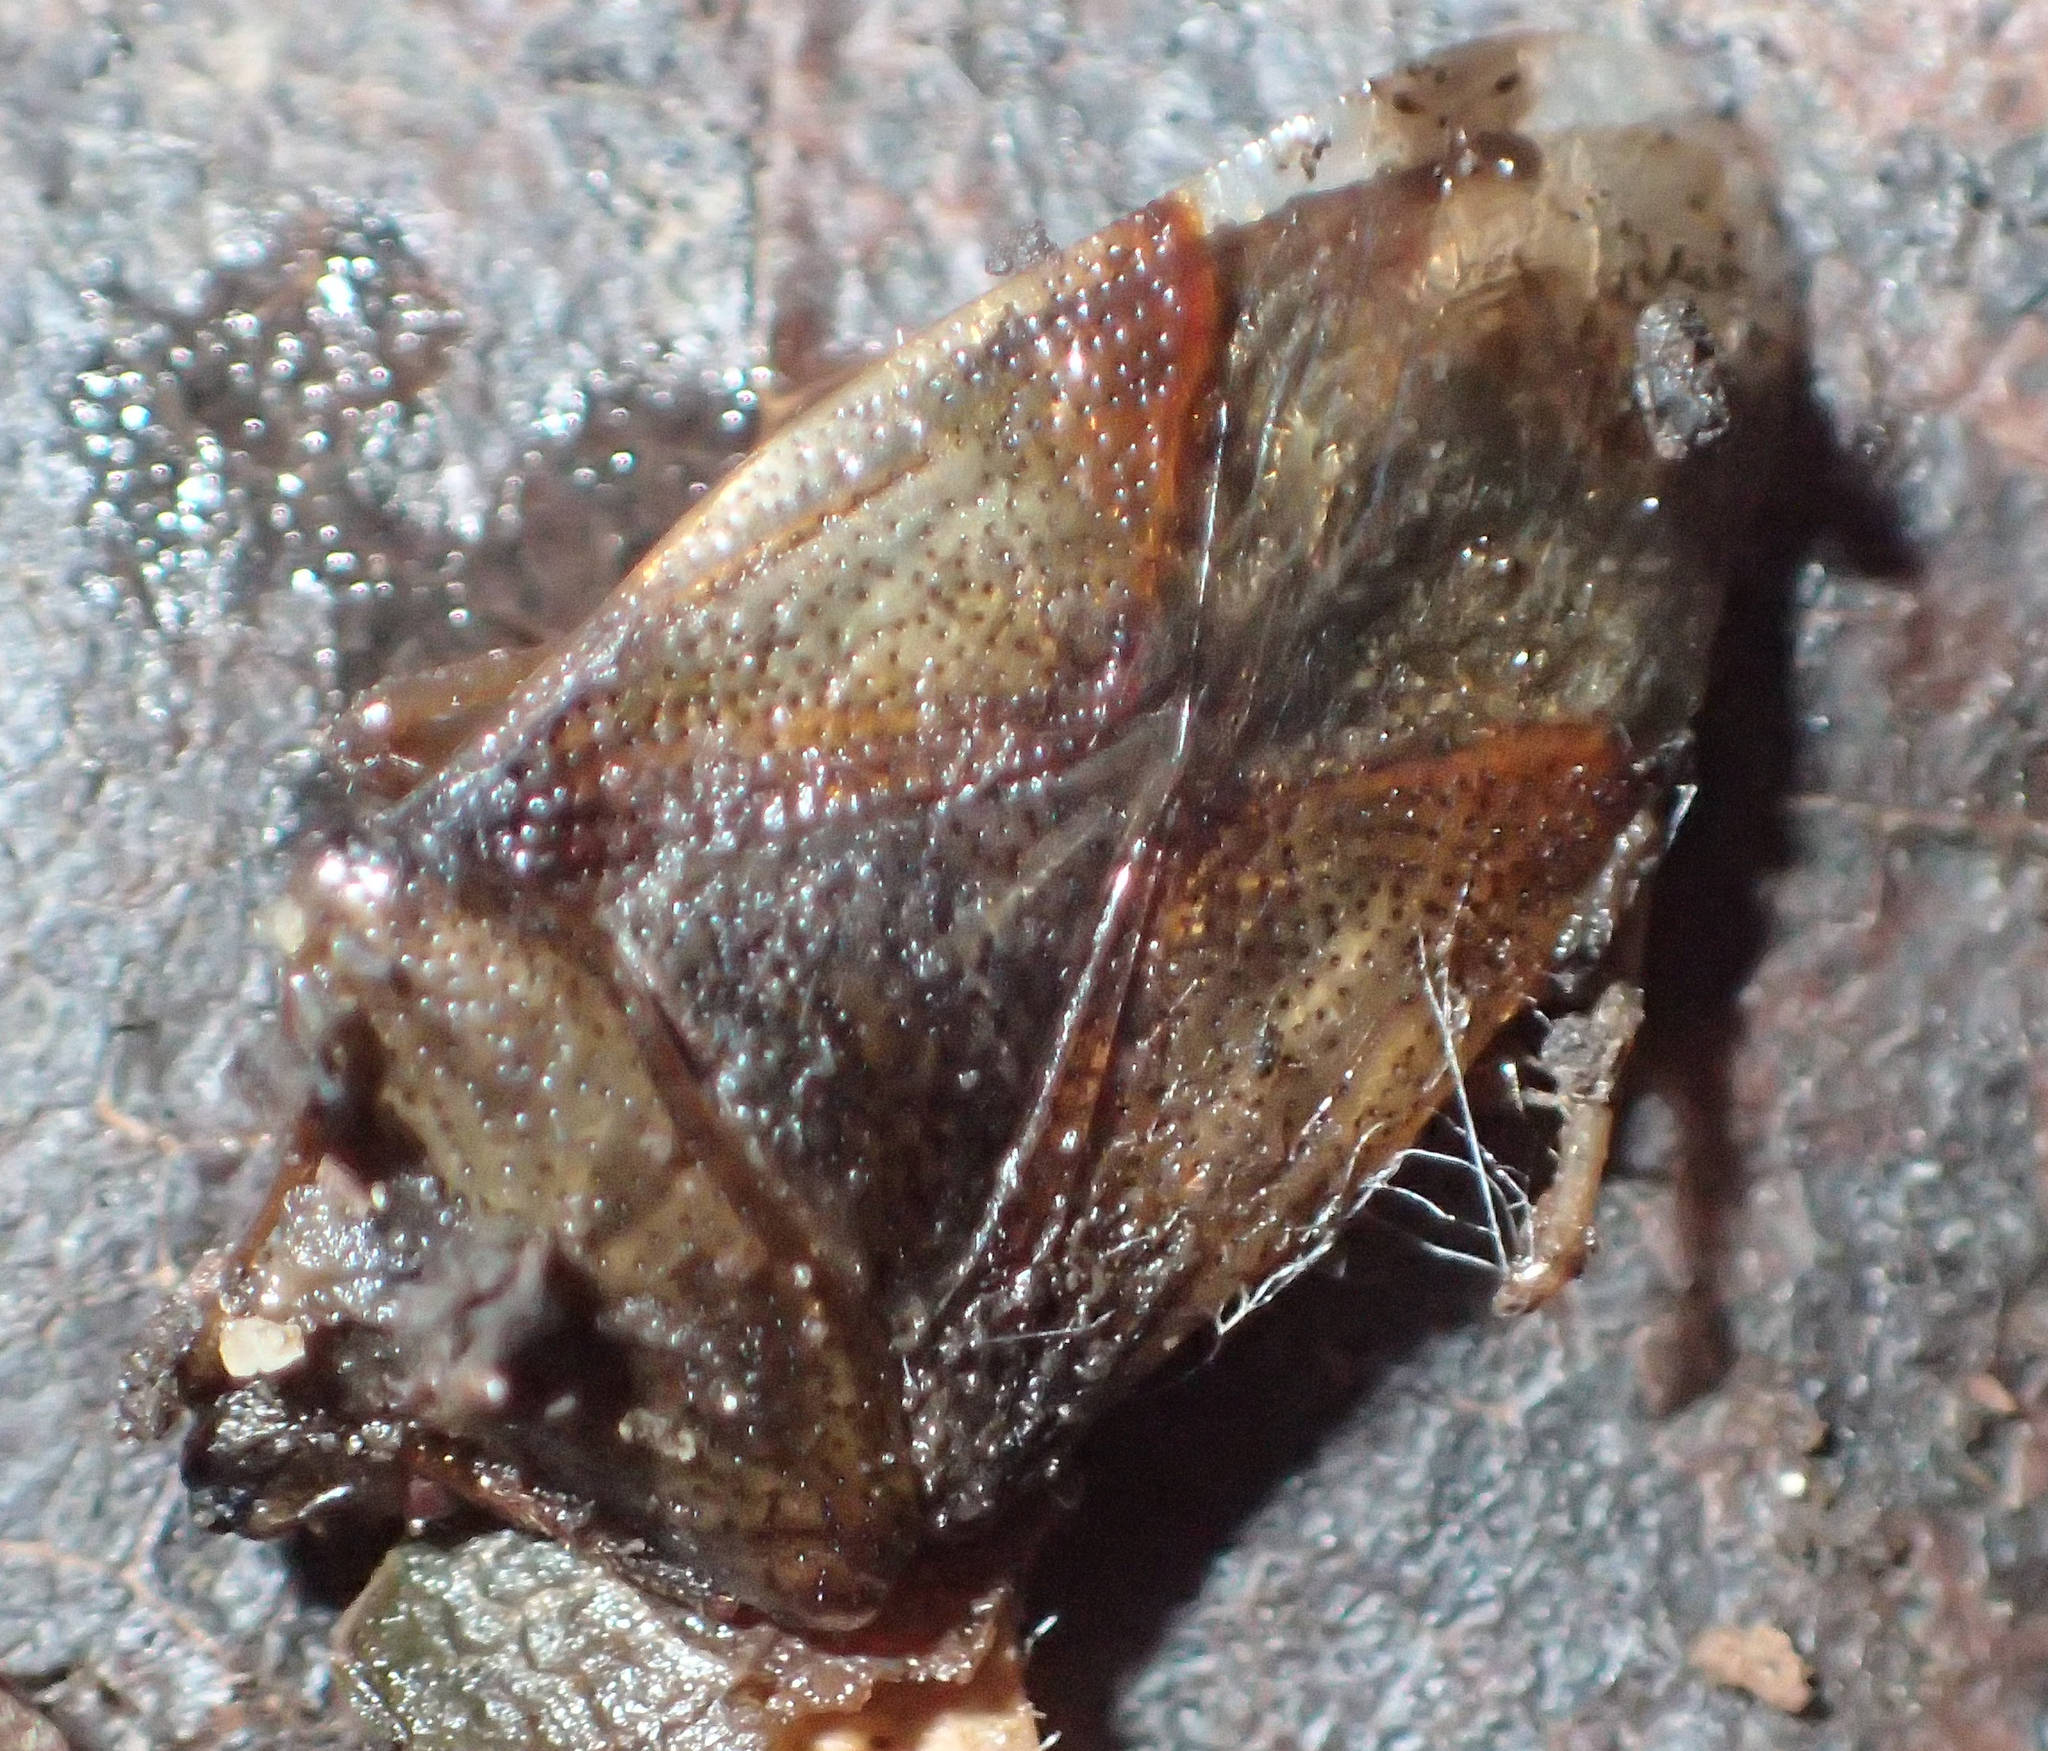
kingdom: Animalia
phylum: Arthropoda
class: Insecta
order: Hemiptera
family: Acanthosomatidae
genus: Elasmostethus
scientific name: Elasmostethus interstinctus
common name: Birch shieldbug
